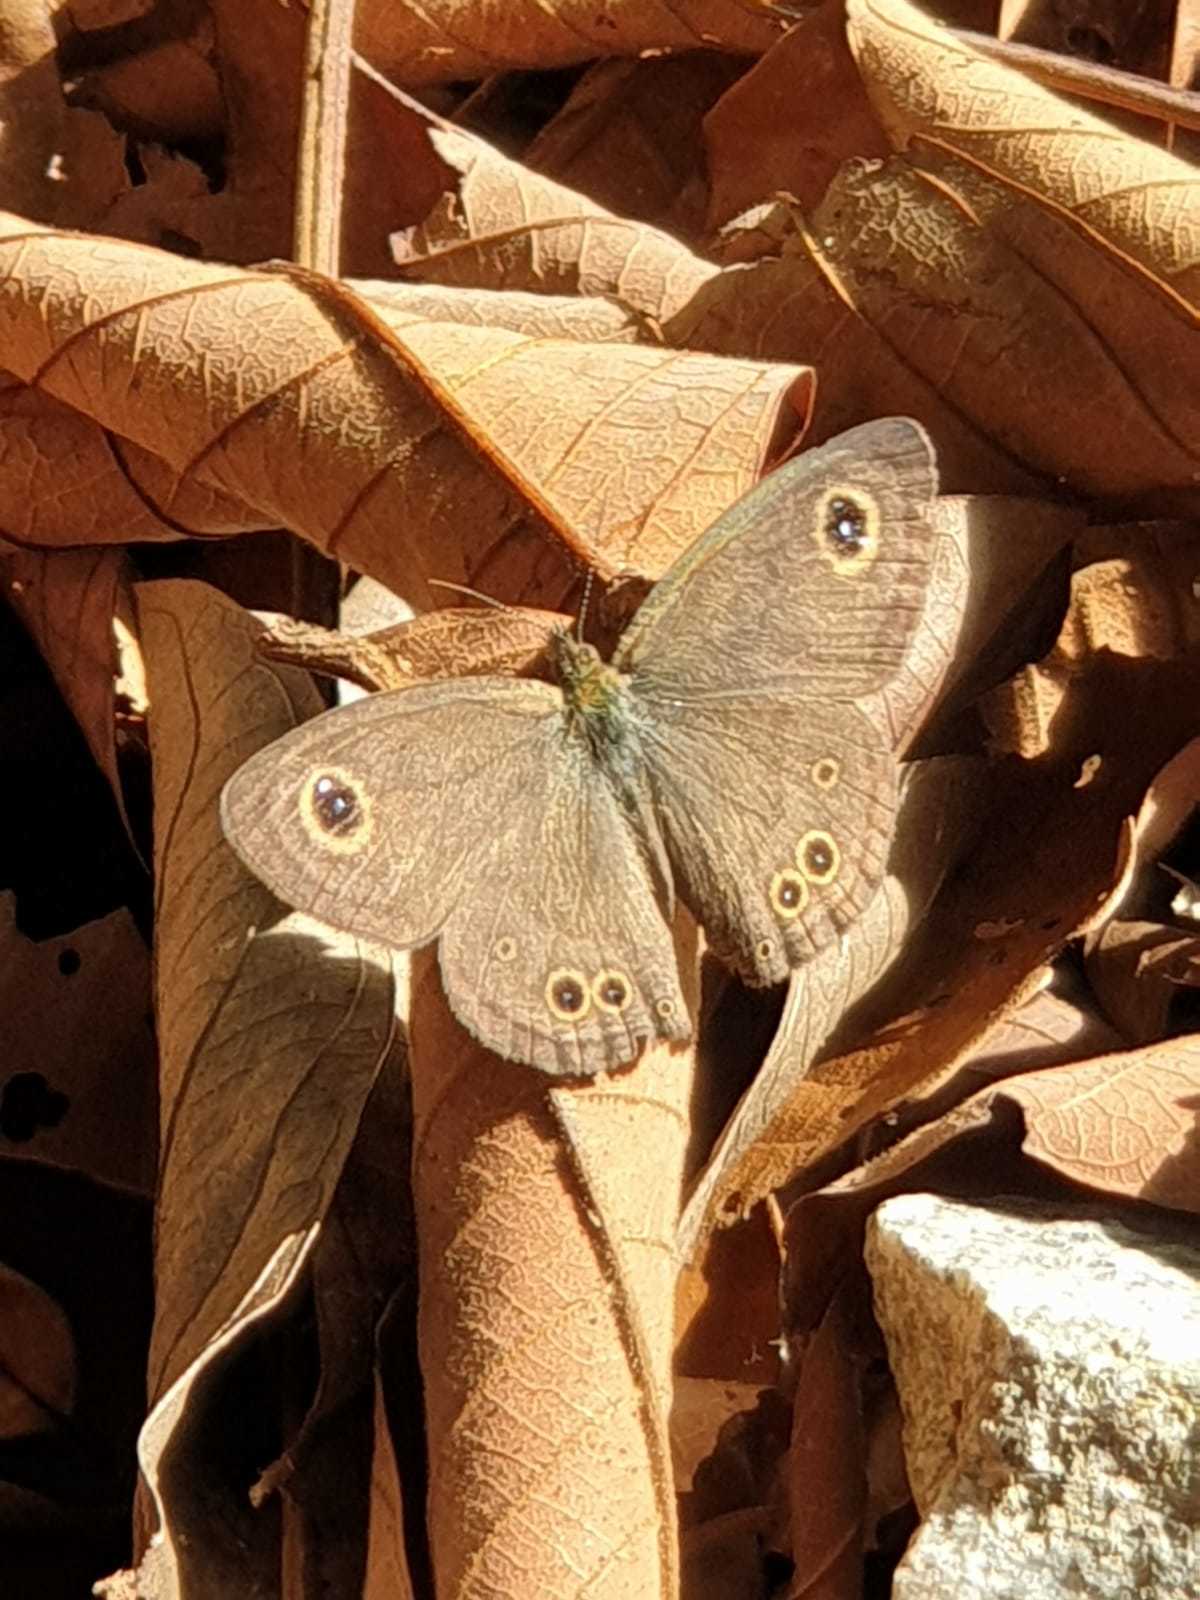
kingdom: Animalia
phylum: Arthropoda
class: Insecta
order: Lepidoptera
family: Nymphalidae
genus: Ypthima
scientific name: Ypthima baldus
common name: Common five-ring
